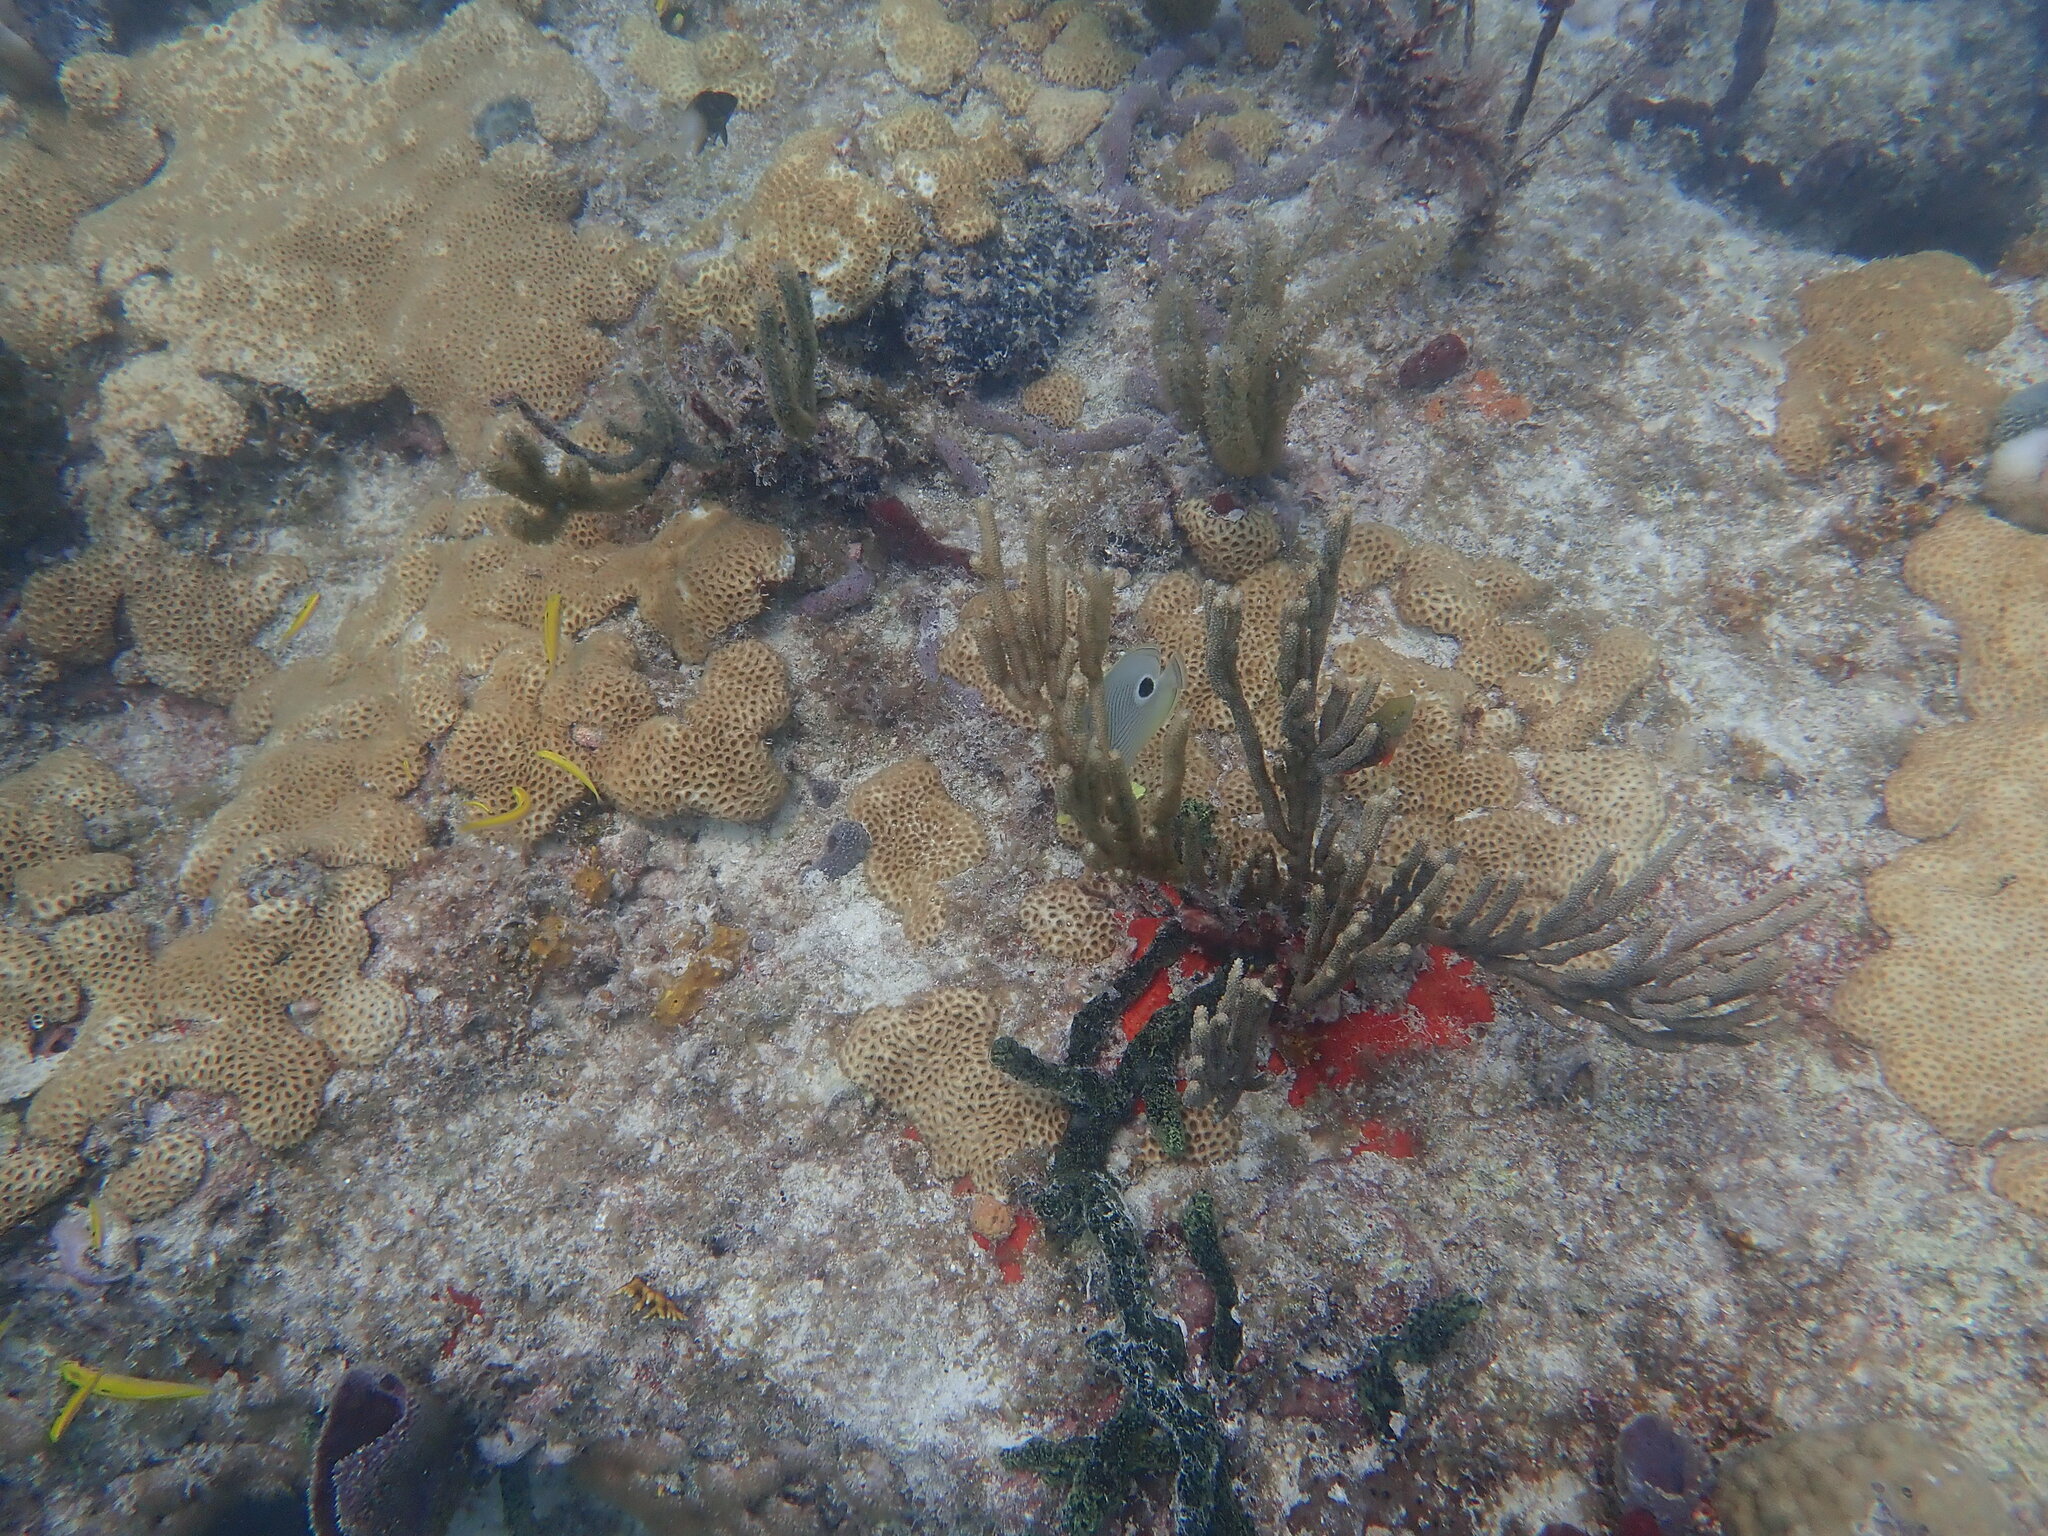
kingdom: Animalia
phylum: Chordata
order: Perciformes
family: Chaetodontidae
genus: Chaetodon
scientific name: Chaetodon capistratus
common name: Kete
